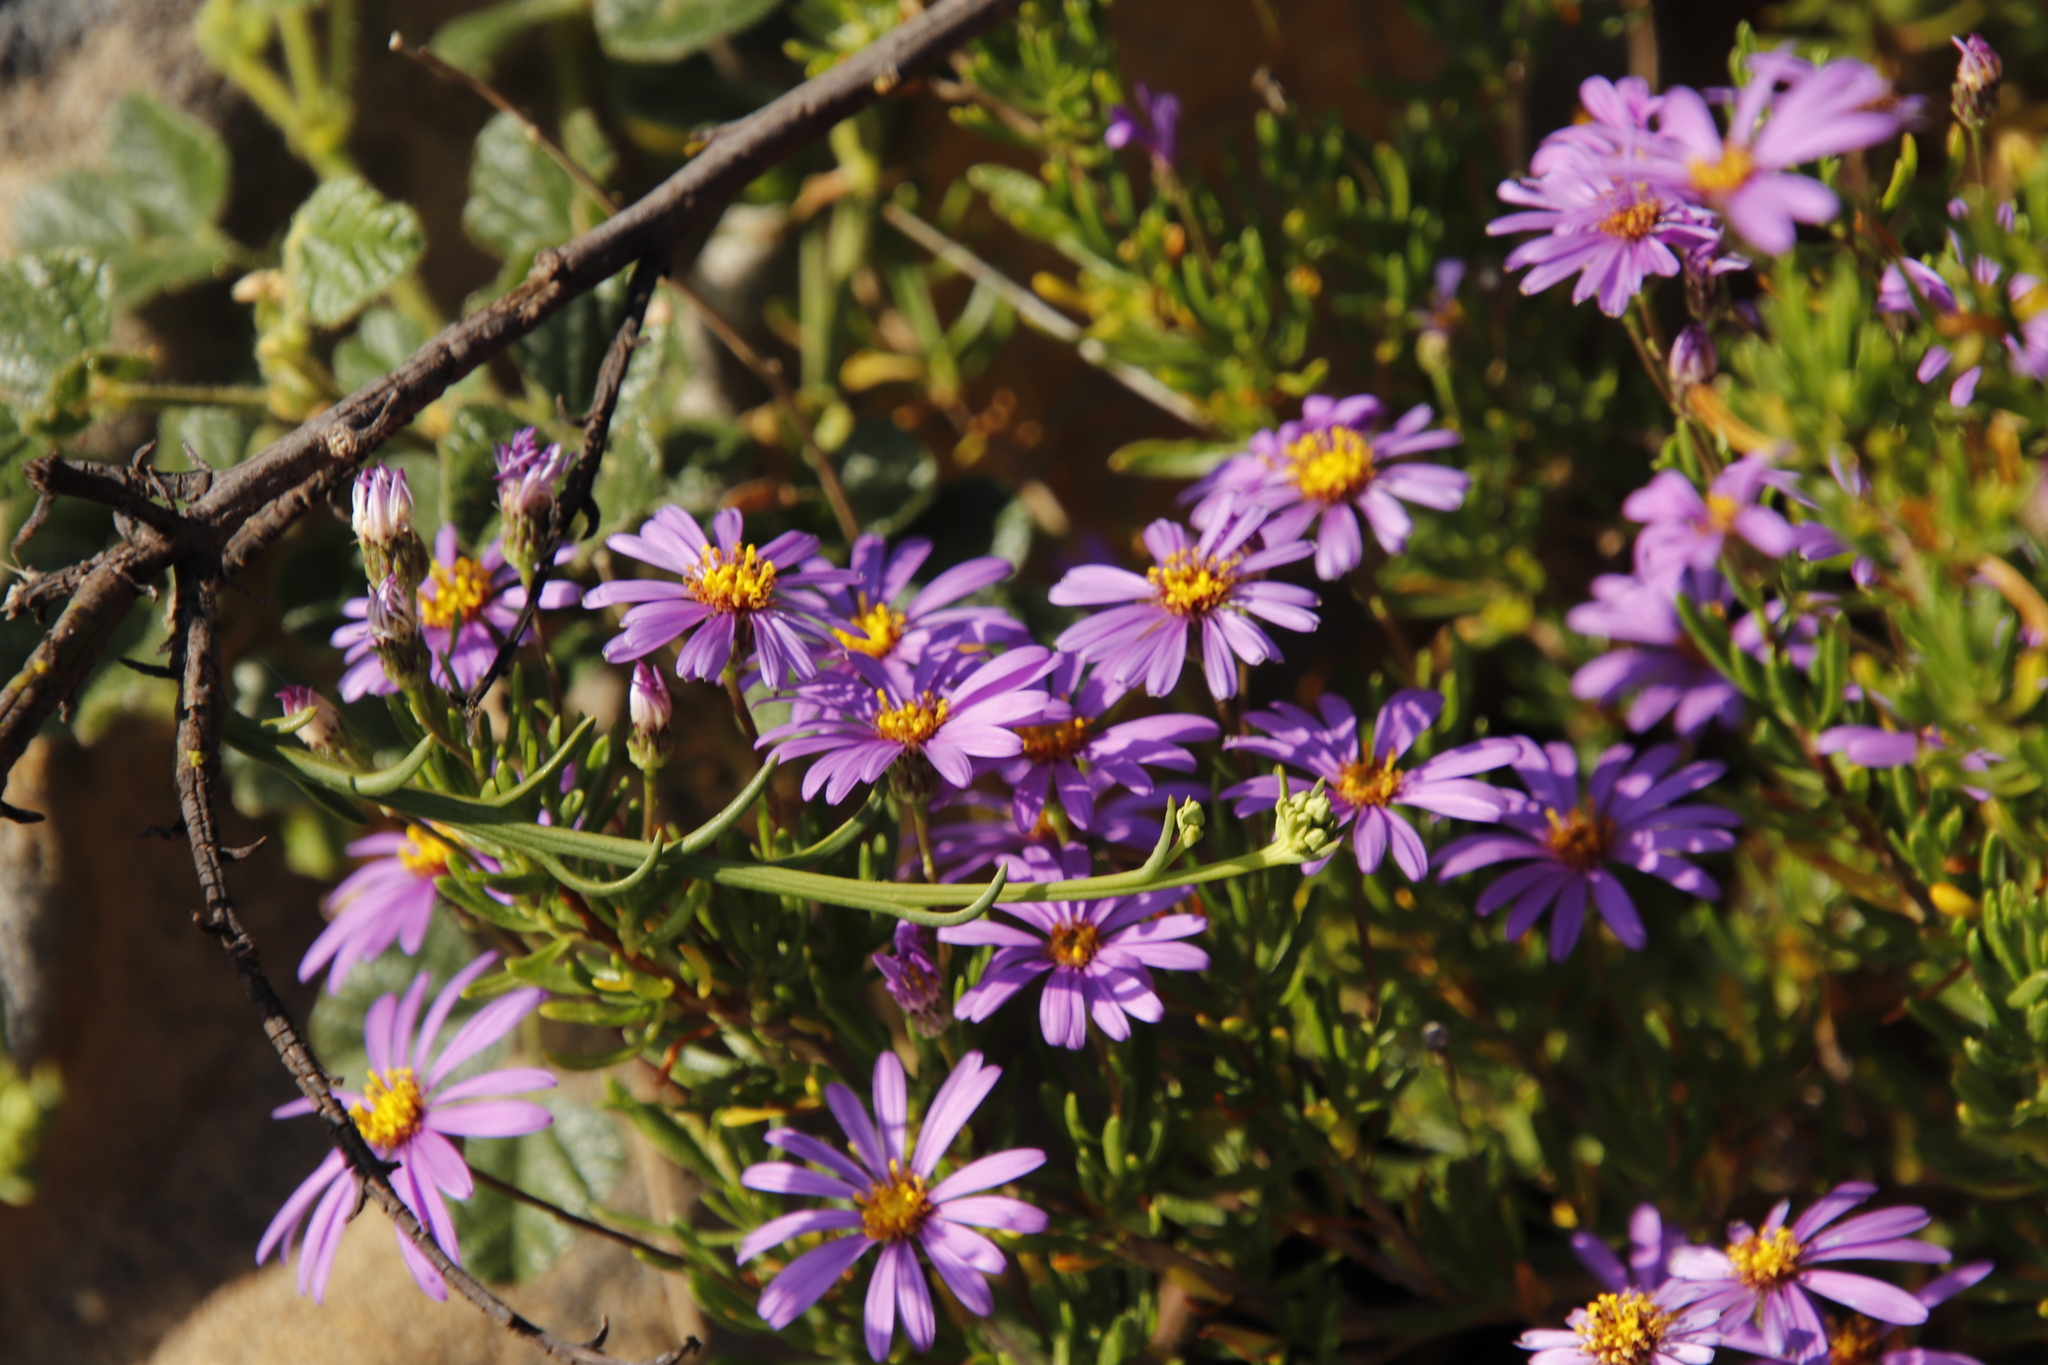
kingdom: Plantae
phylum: Tracheophyta
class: Magnoliopsida
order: Asterales
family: Asteraceae
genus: Senecio
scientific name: Senecio umbellatus
